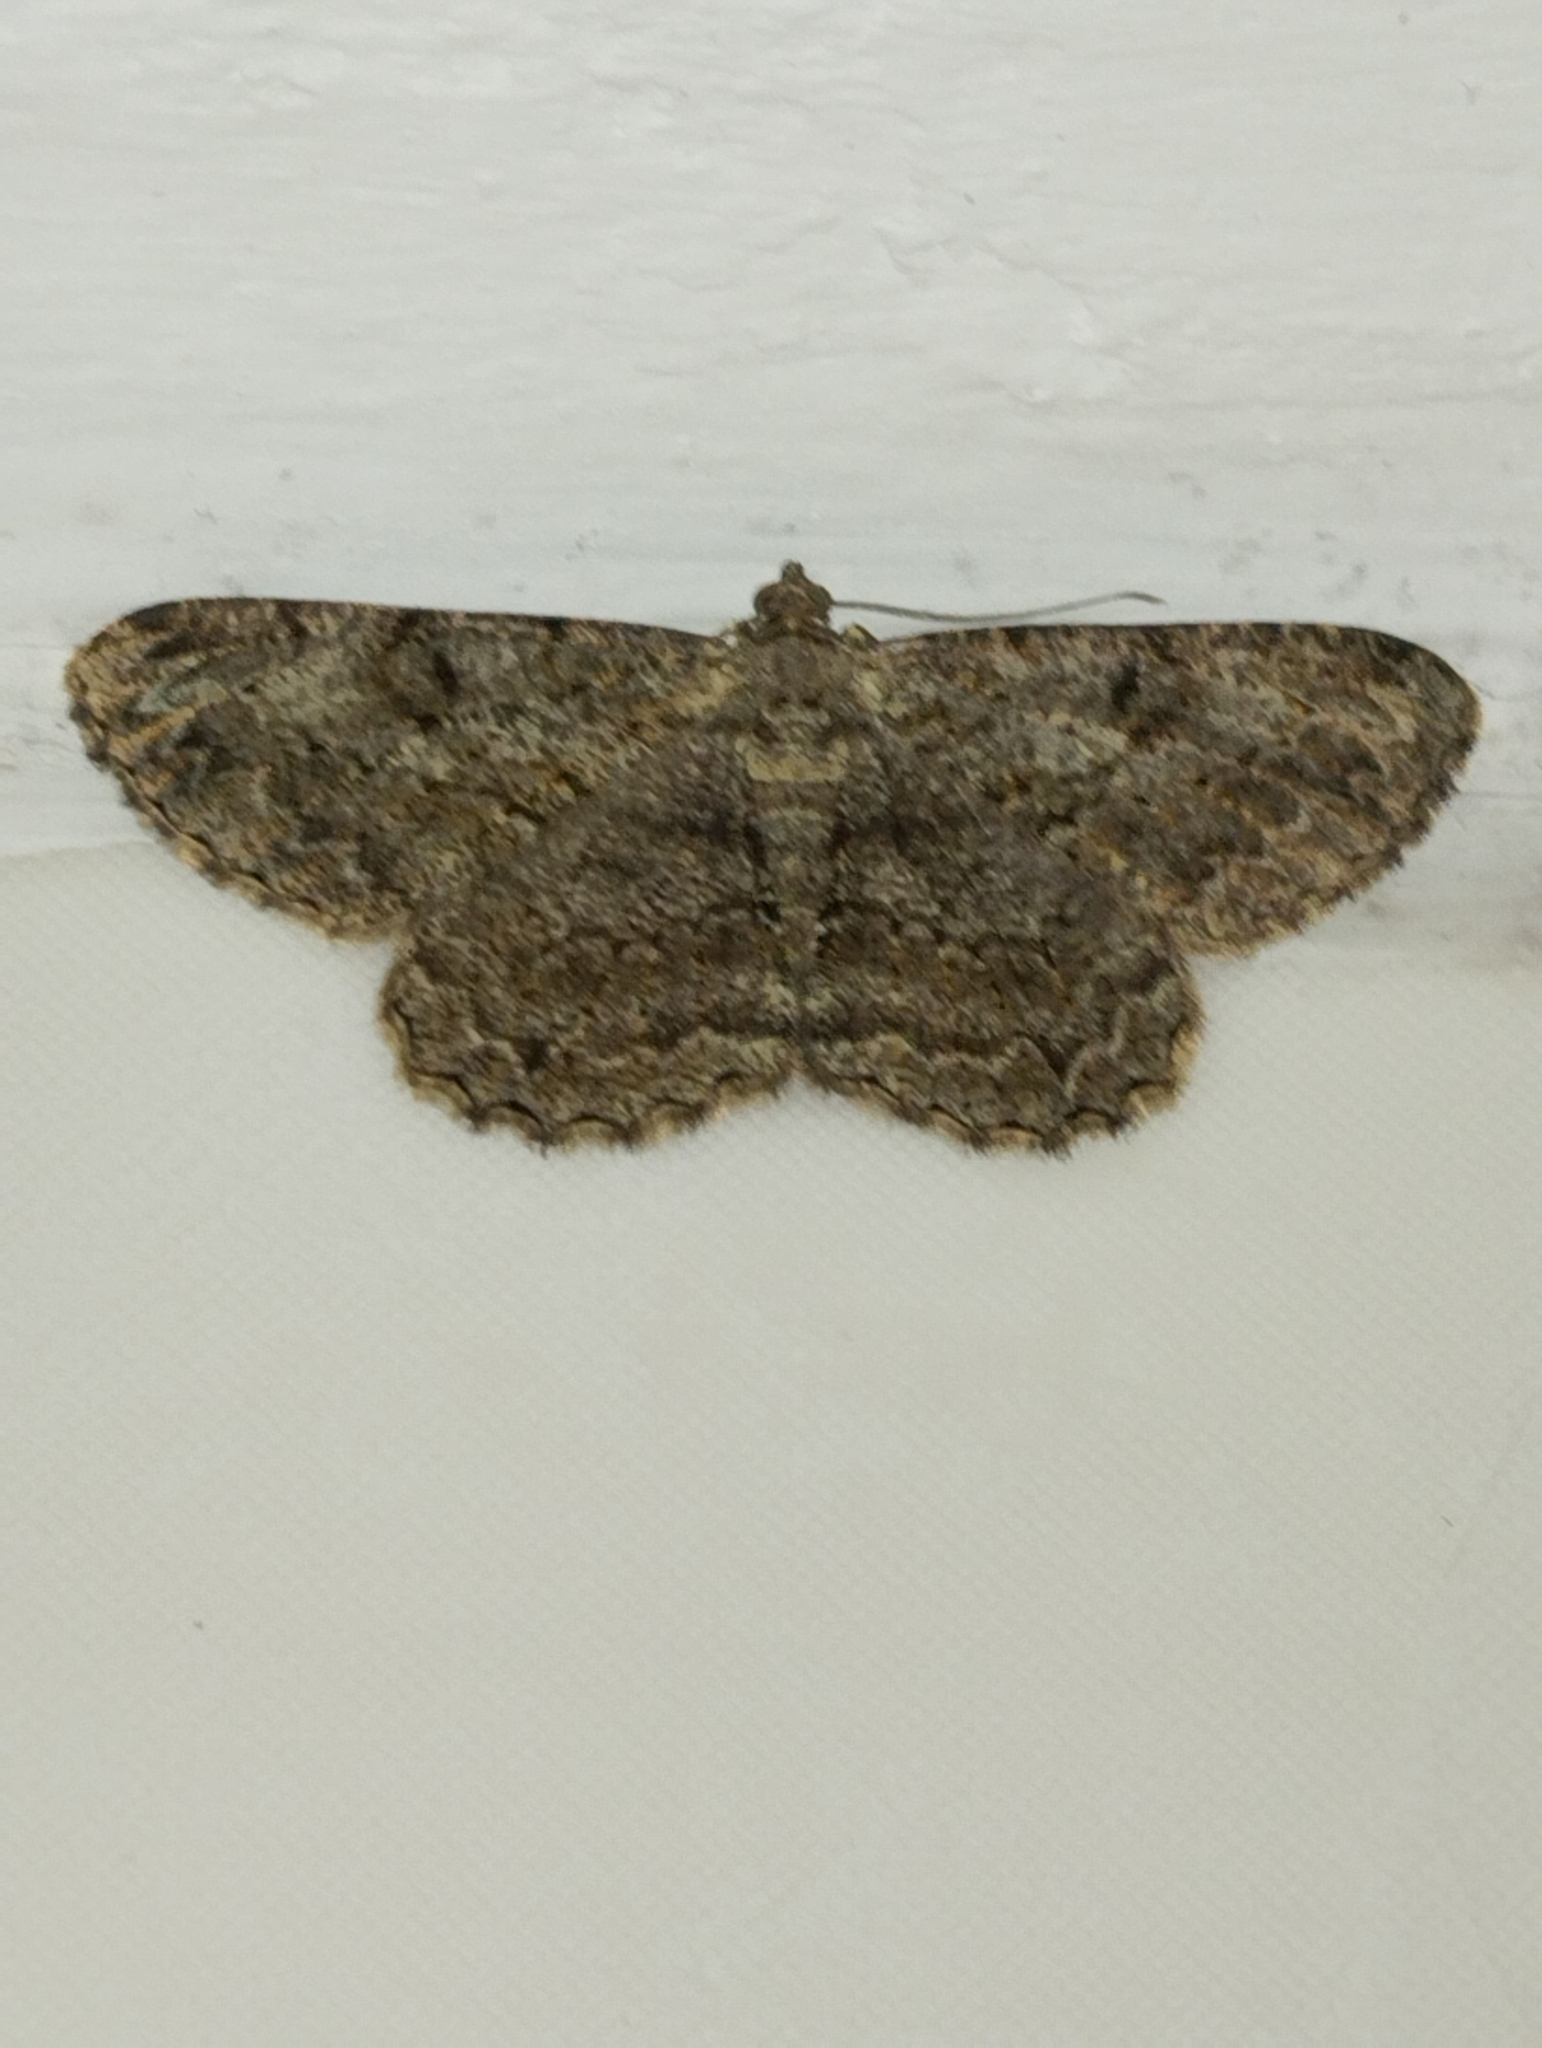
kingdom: Animalia
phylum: Arthropoda
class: Insecta
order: Lepidoptera
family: Geometridae
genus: Peribatodes
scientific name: Peribatodes rhomboidaria
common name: Willow beauty
